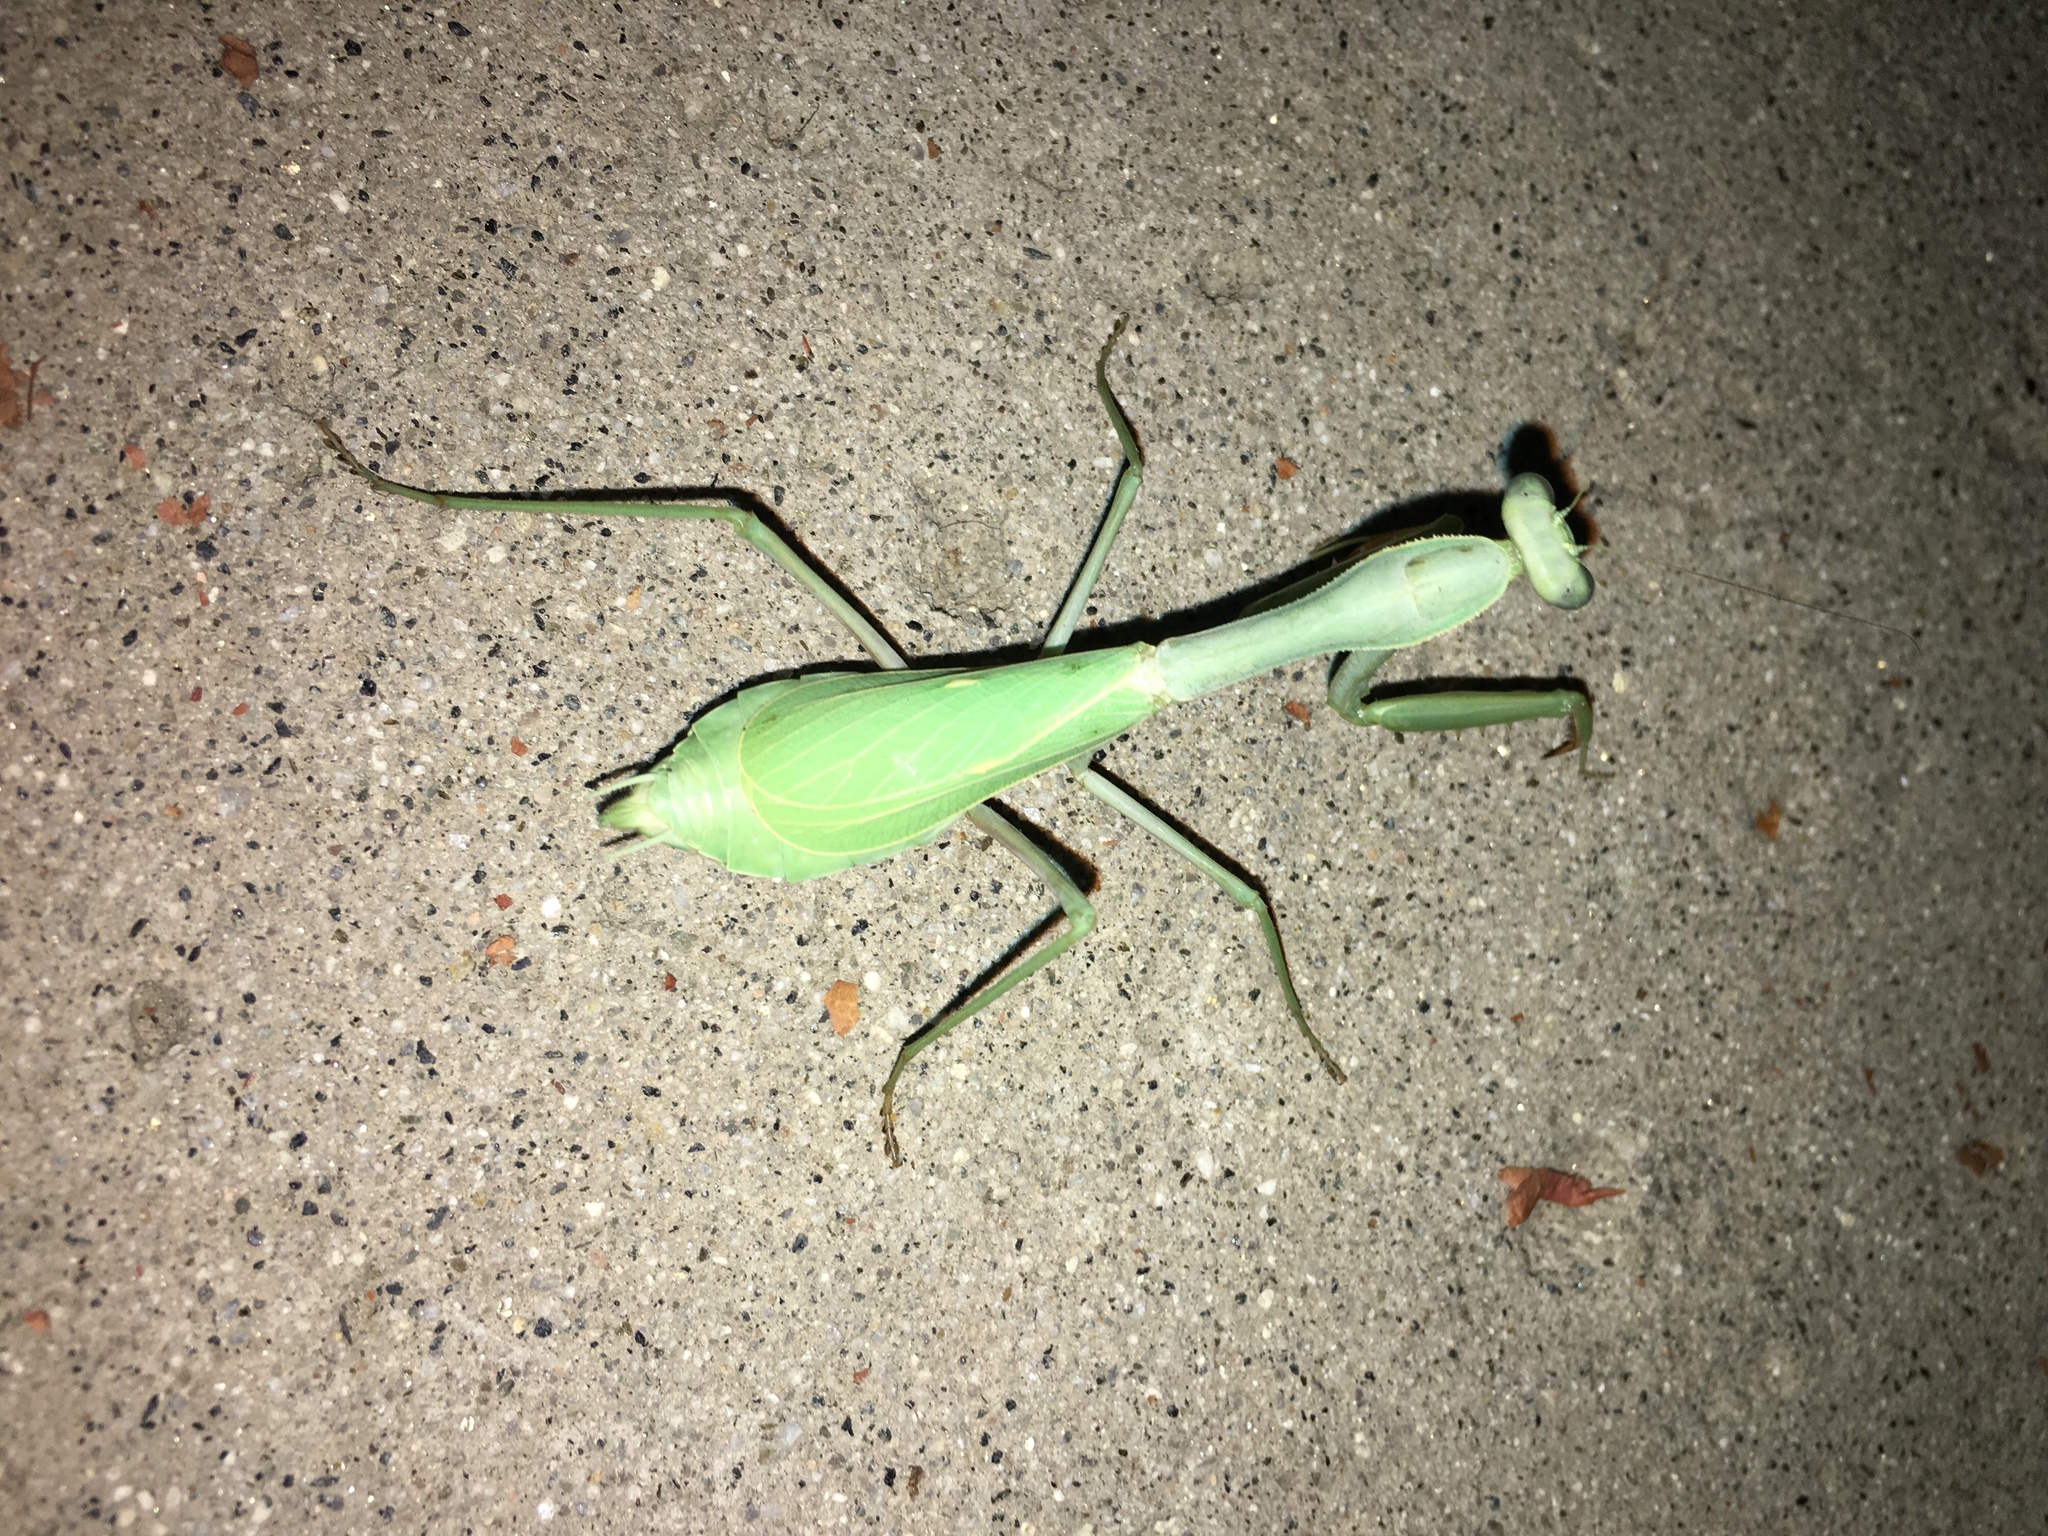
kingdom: Animalia
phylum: Arthropoda
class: Insecta
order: Mantodea
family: Mantidae
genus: Stagmomantis
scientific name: Stagmomantis limbata
